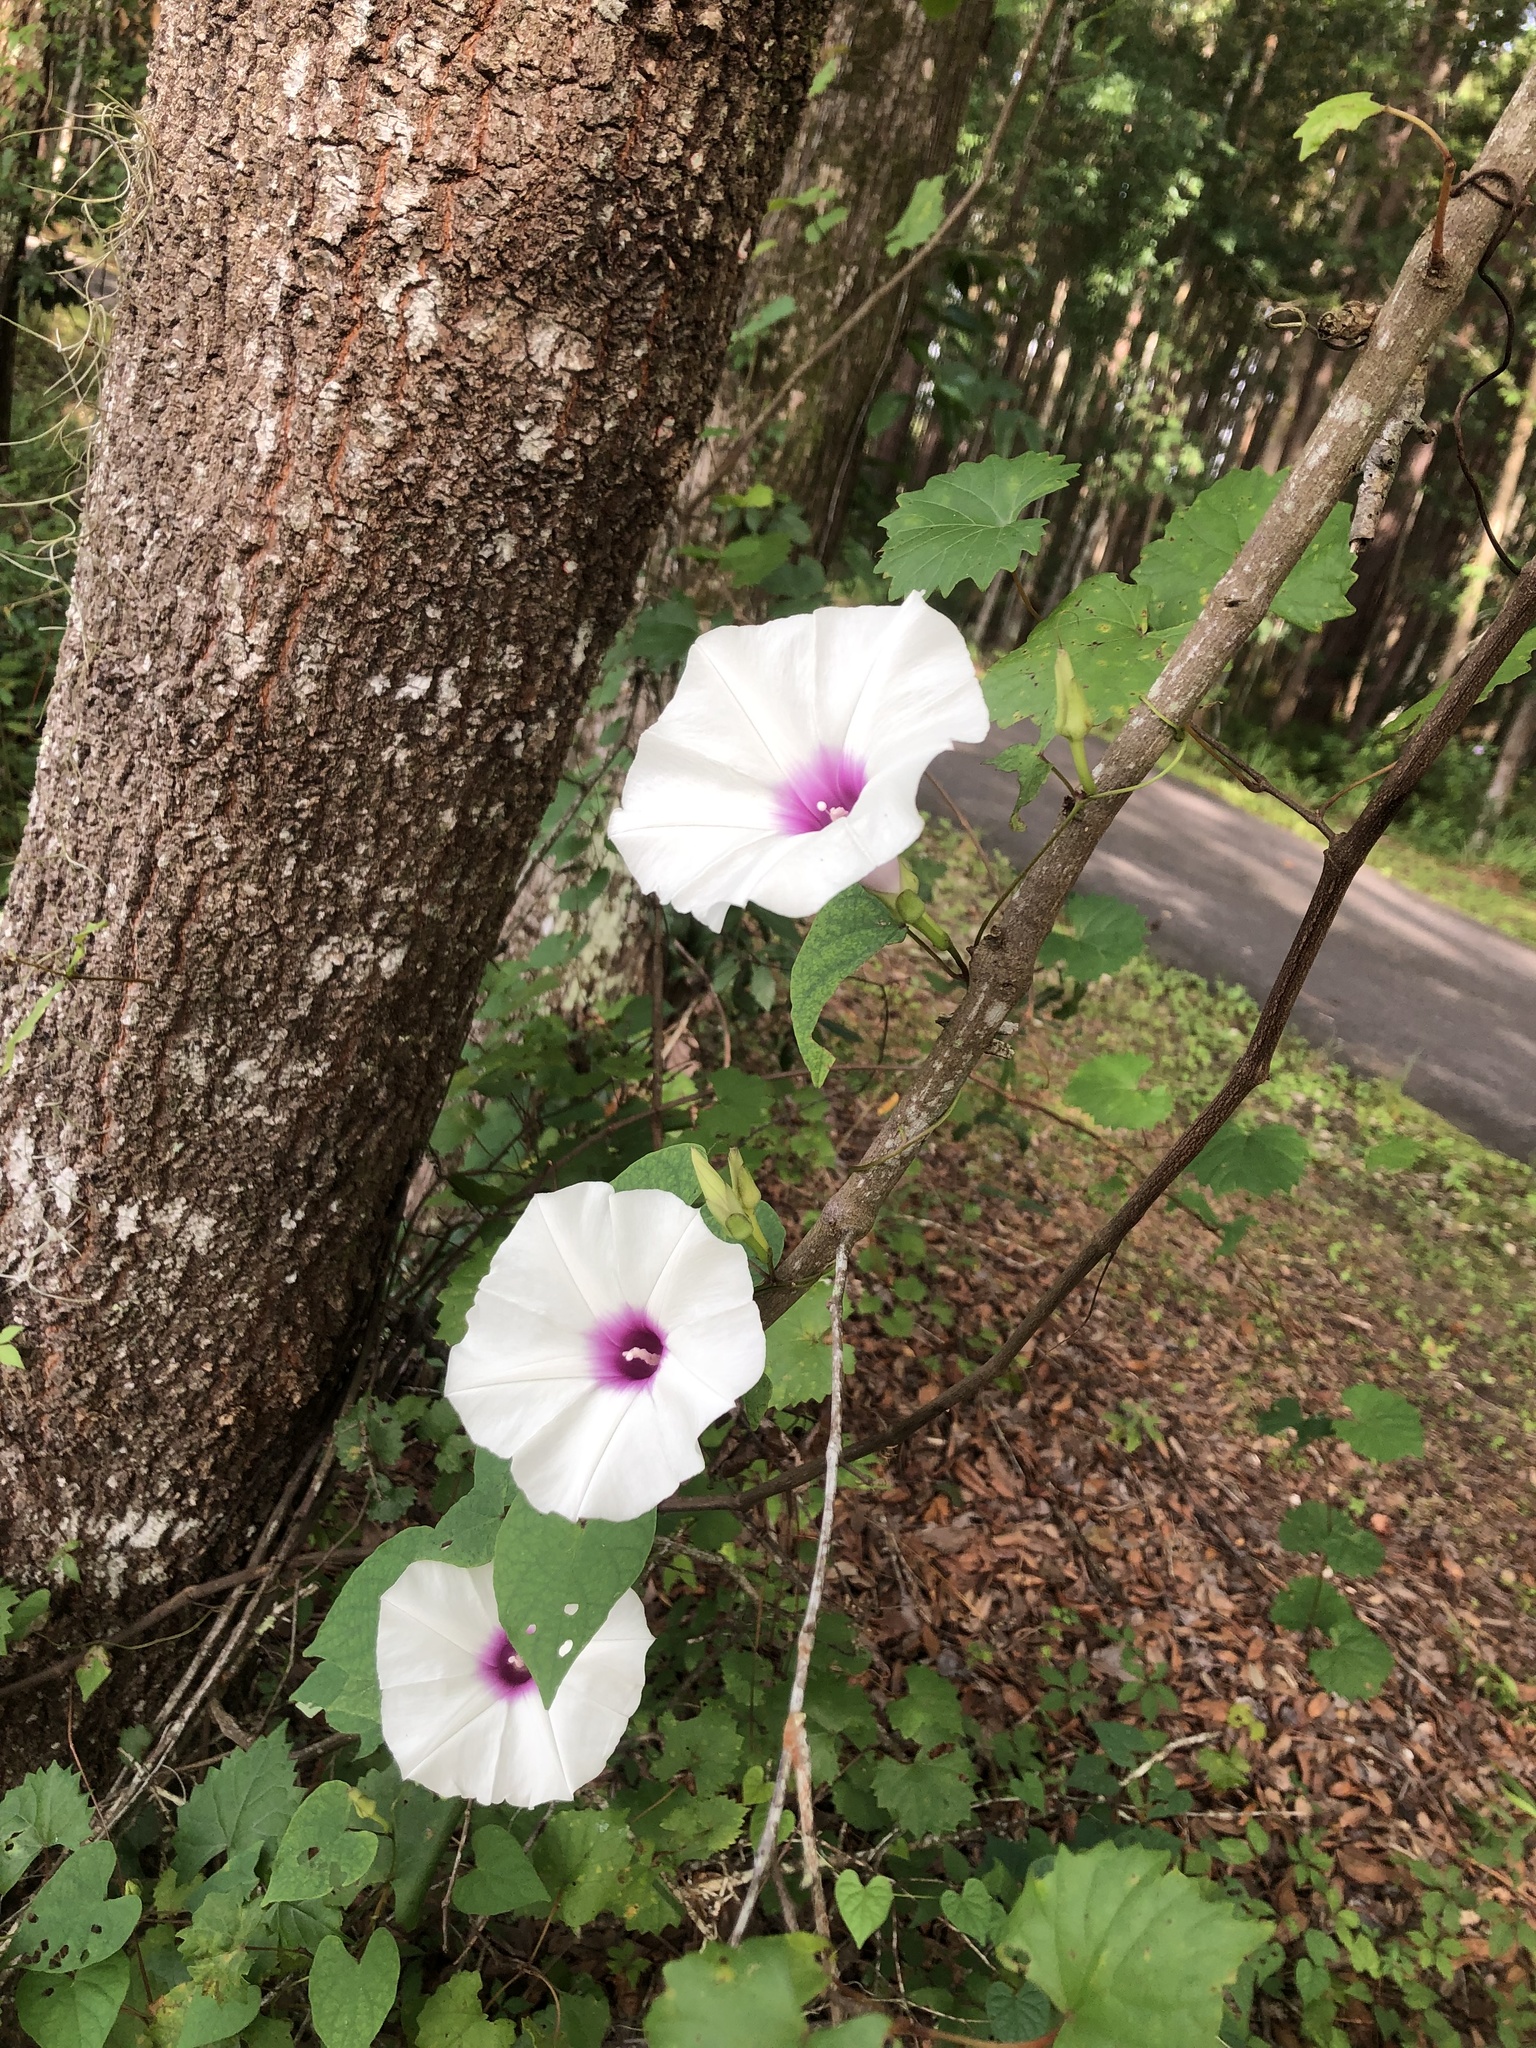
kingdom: Plantae
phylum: Tracheophyta
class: Magnoliopsida
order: Solanales
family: Convolvulaceae
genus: Ipomoea
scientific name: Ipomoea pandurata
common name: Man-of-the-earth
